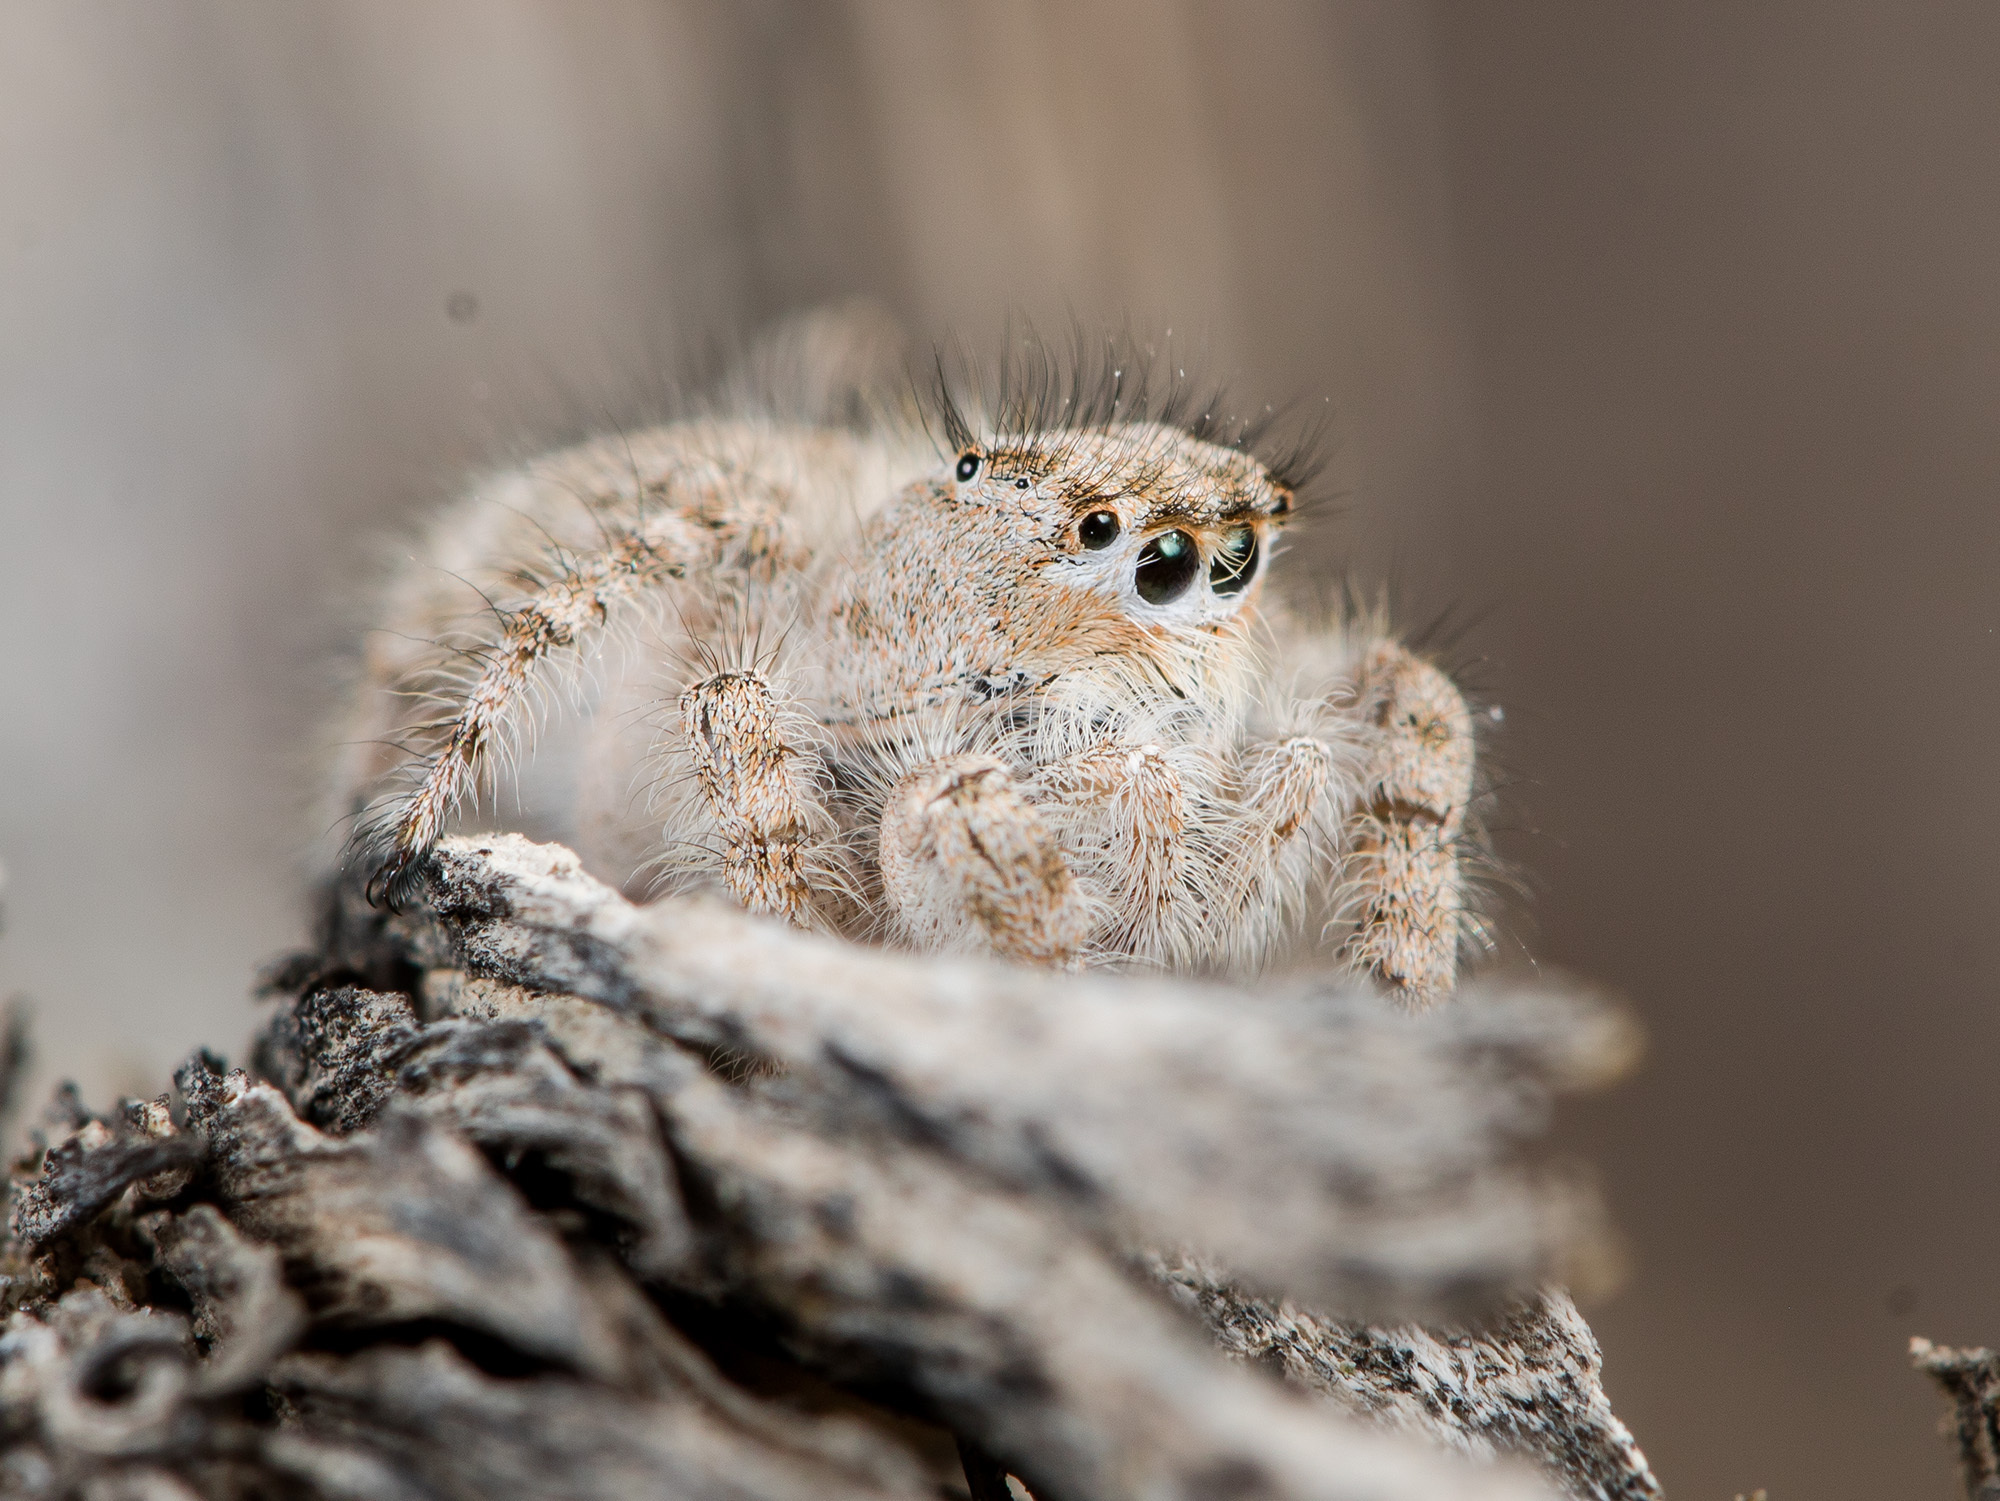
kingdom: Animalia
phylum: Arthropoda
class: Arachnida
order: Araneae
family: Salticidae
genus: Marusyllus
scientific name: Marusyllus coreanus
